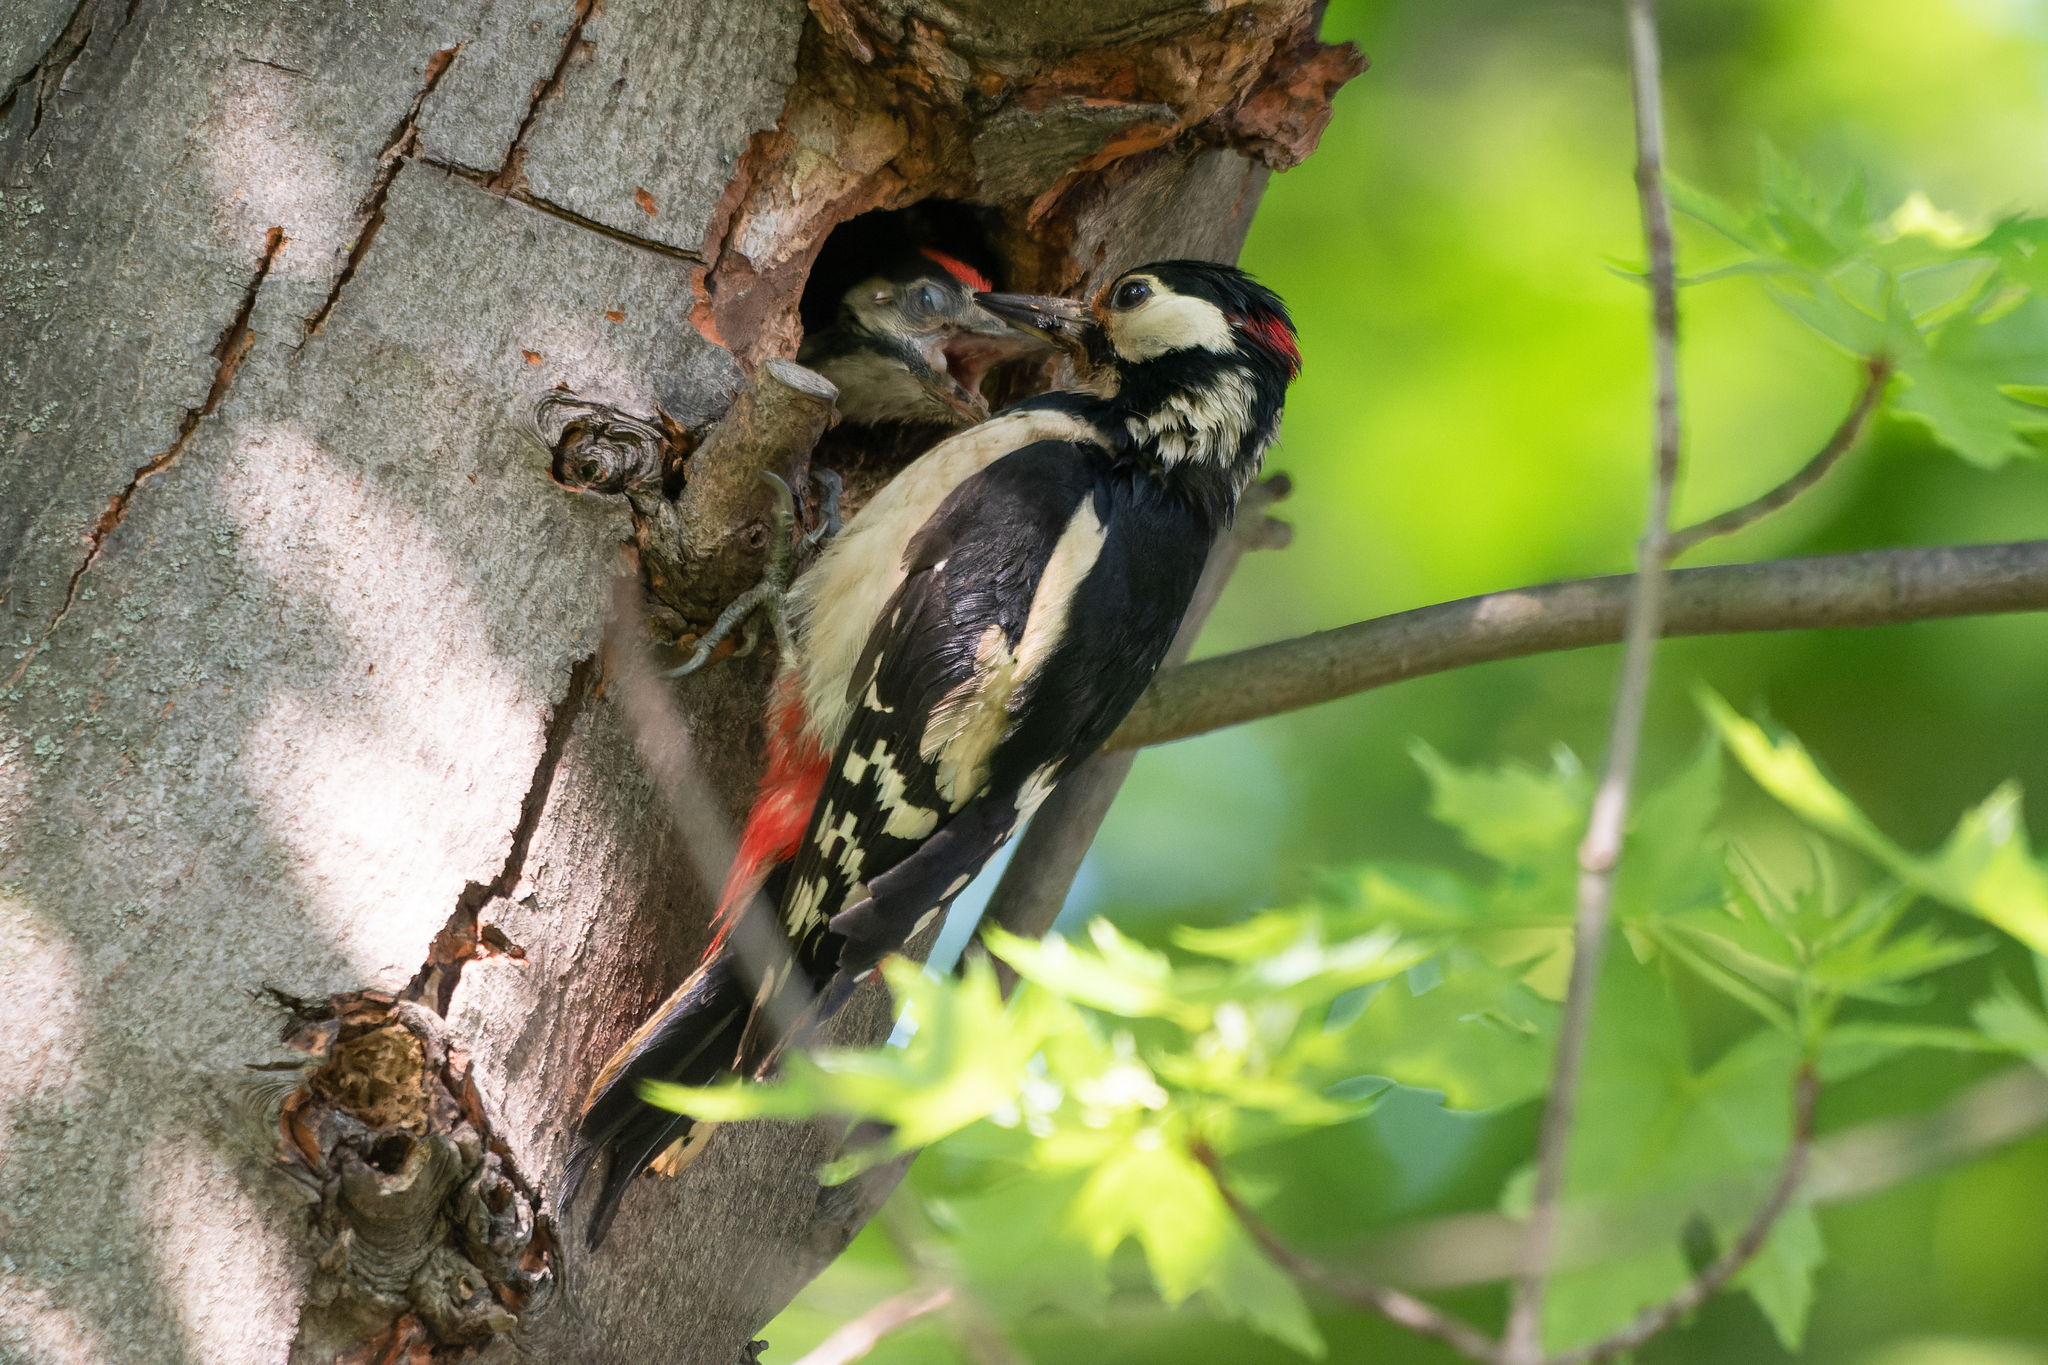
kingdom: Animalia
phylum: Chordata
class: Aves
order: Piciformes
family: Picidae
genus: Dendrocopos
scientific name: Dendrocopos major
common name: Great spotted woodpecker
